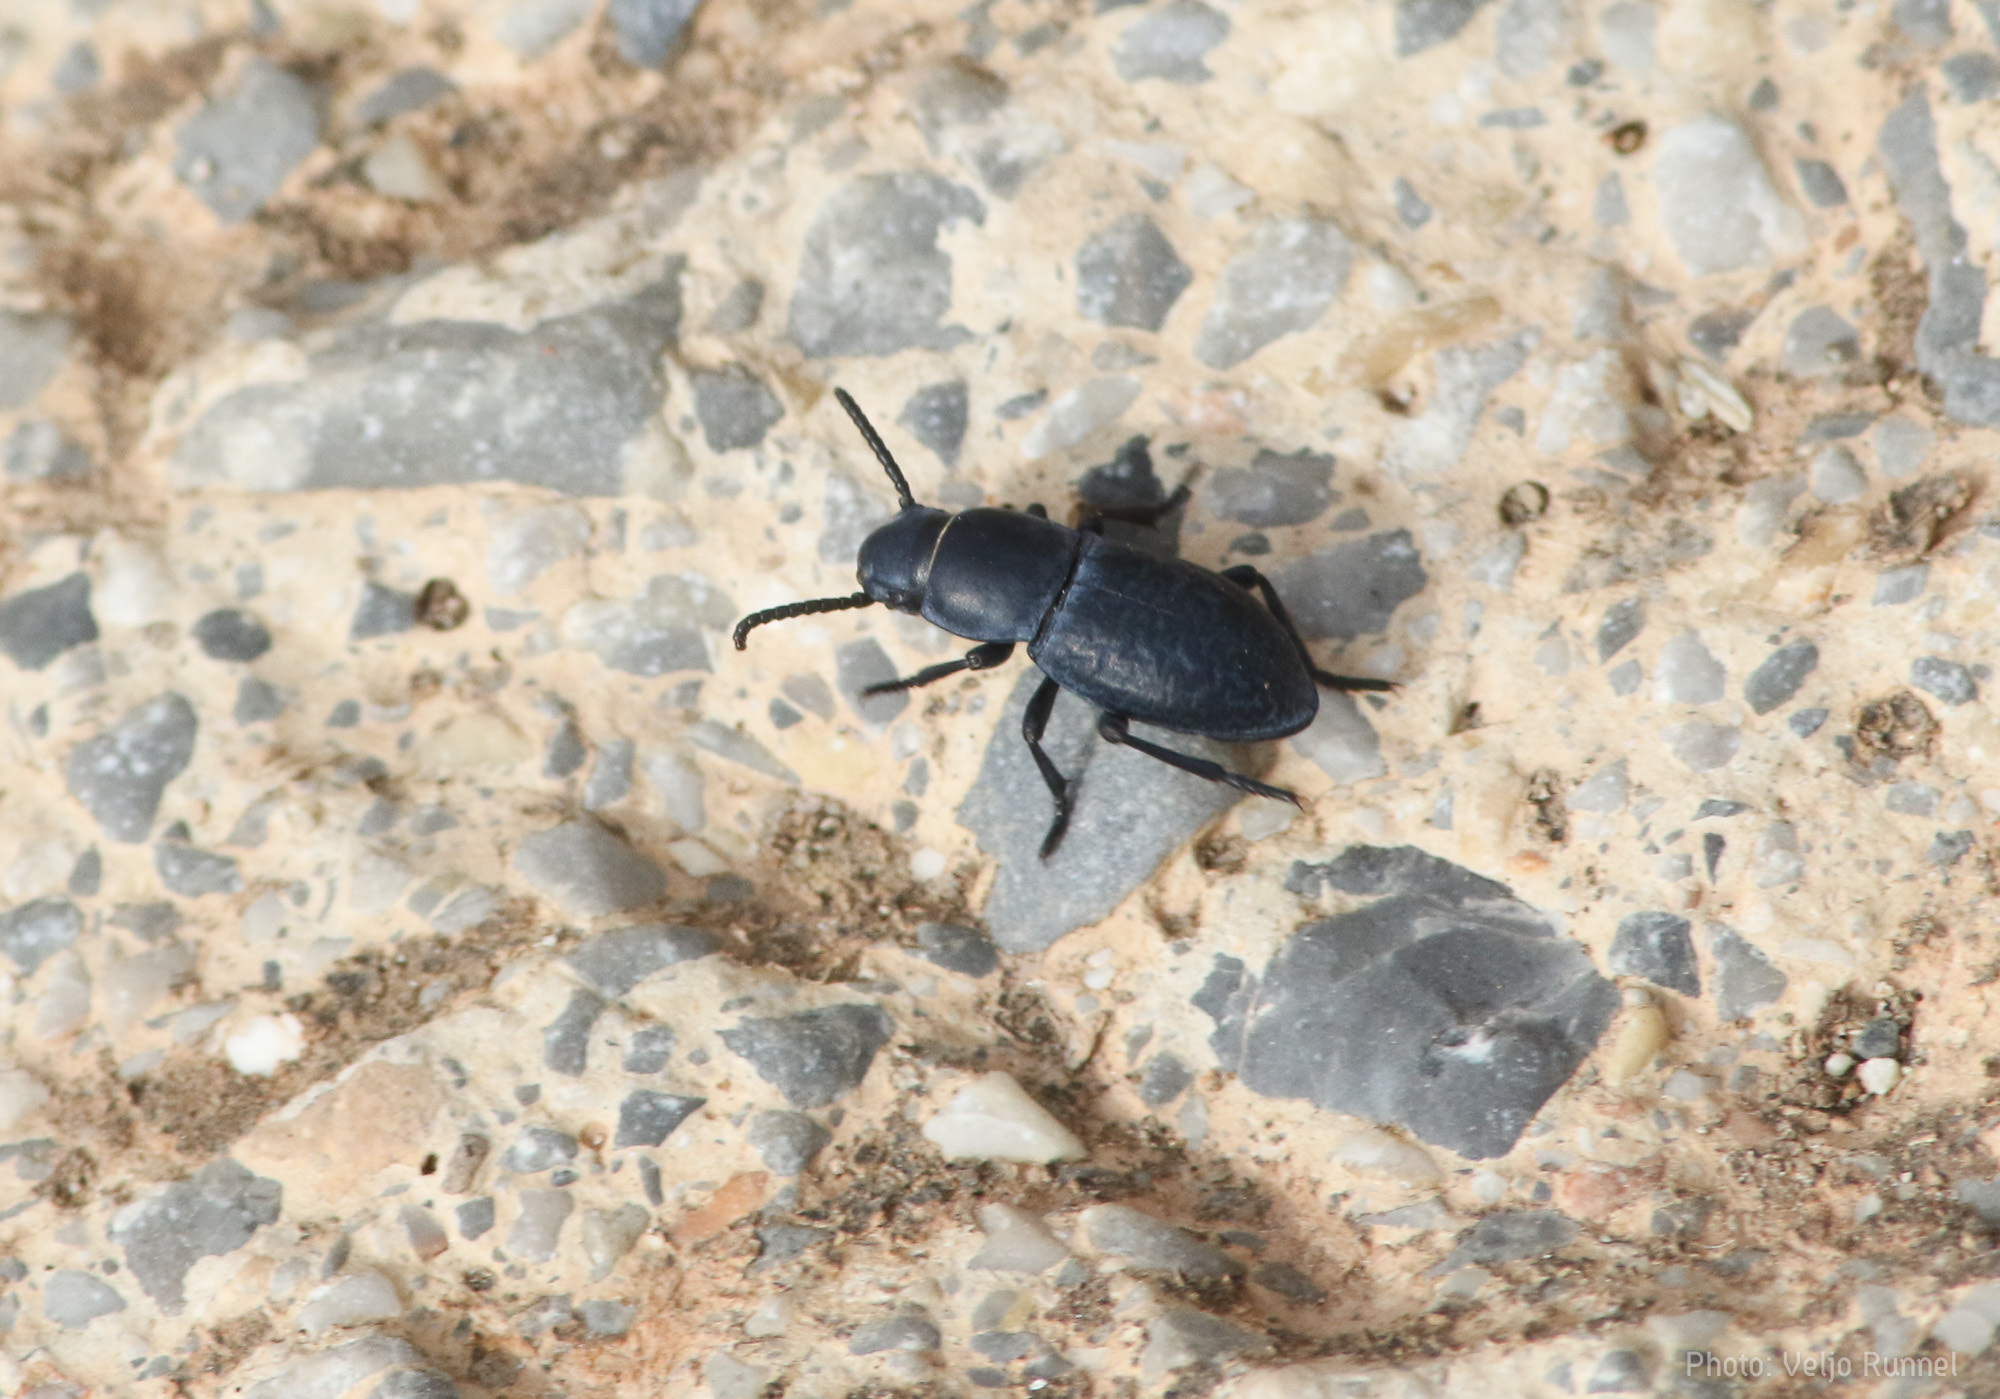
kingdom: Animalia
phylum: Arthropoda
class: Insecta
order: Coleoptera
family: Tenebrionidae
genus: Dailognatha
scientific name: Dailognatha quadricollis
